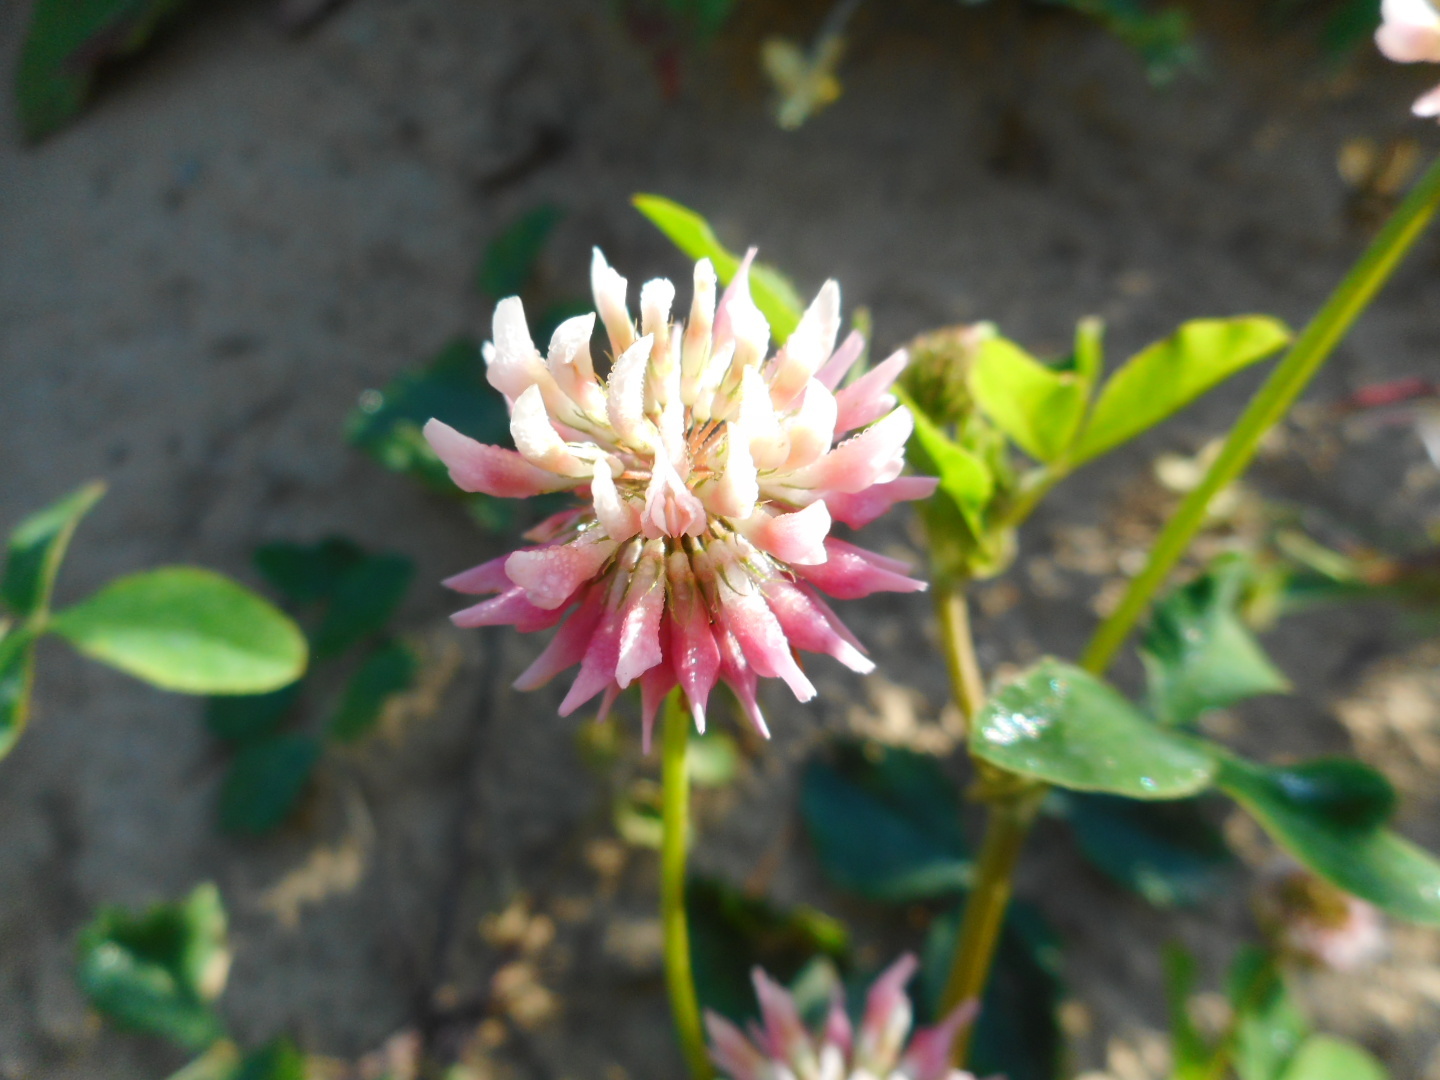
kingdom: Plantae
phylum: Tracheophyta
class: Magnoliopsida
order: Fabales
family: Fabaceae
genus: Trifolium
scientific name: Trifolium hybridum
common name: Alsike clover
